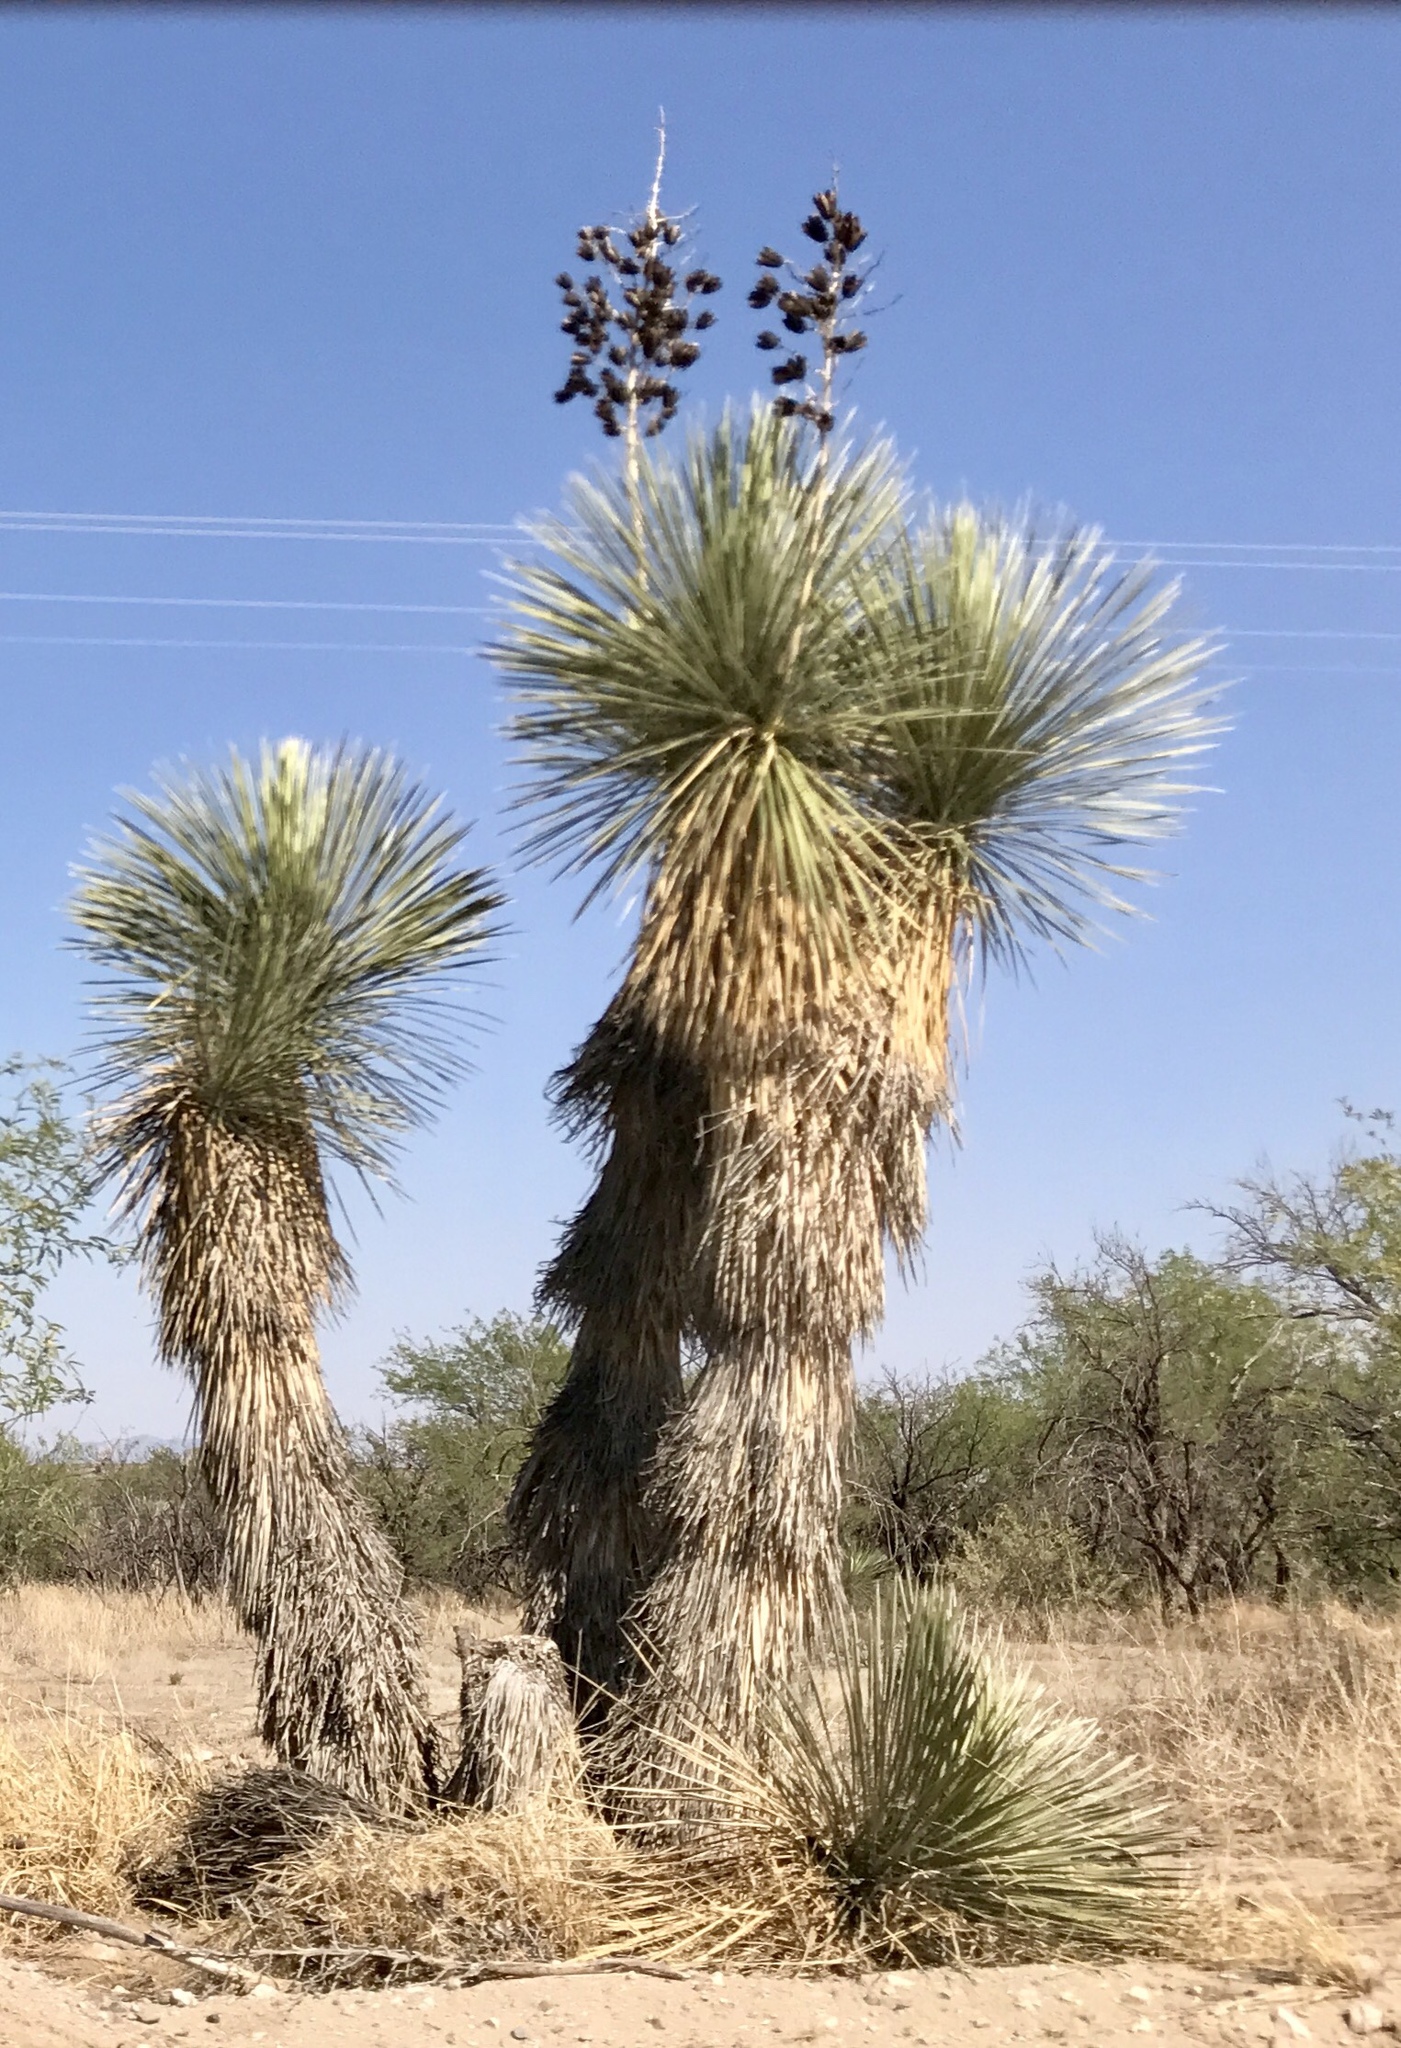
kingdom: Plantae
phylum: Tracheophyta
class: Liliopsida
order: Asparagales
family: Asparagaceae
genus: Yucca
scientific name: Yucca elata
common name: Palmella
